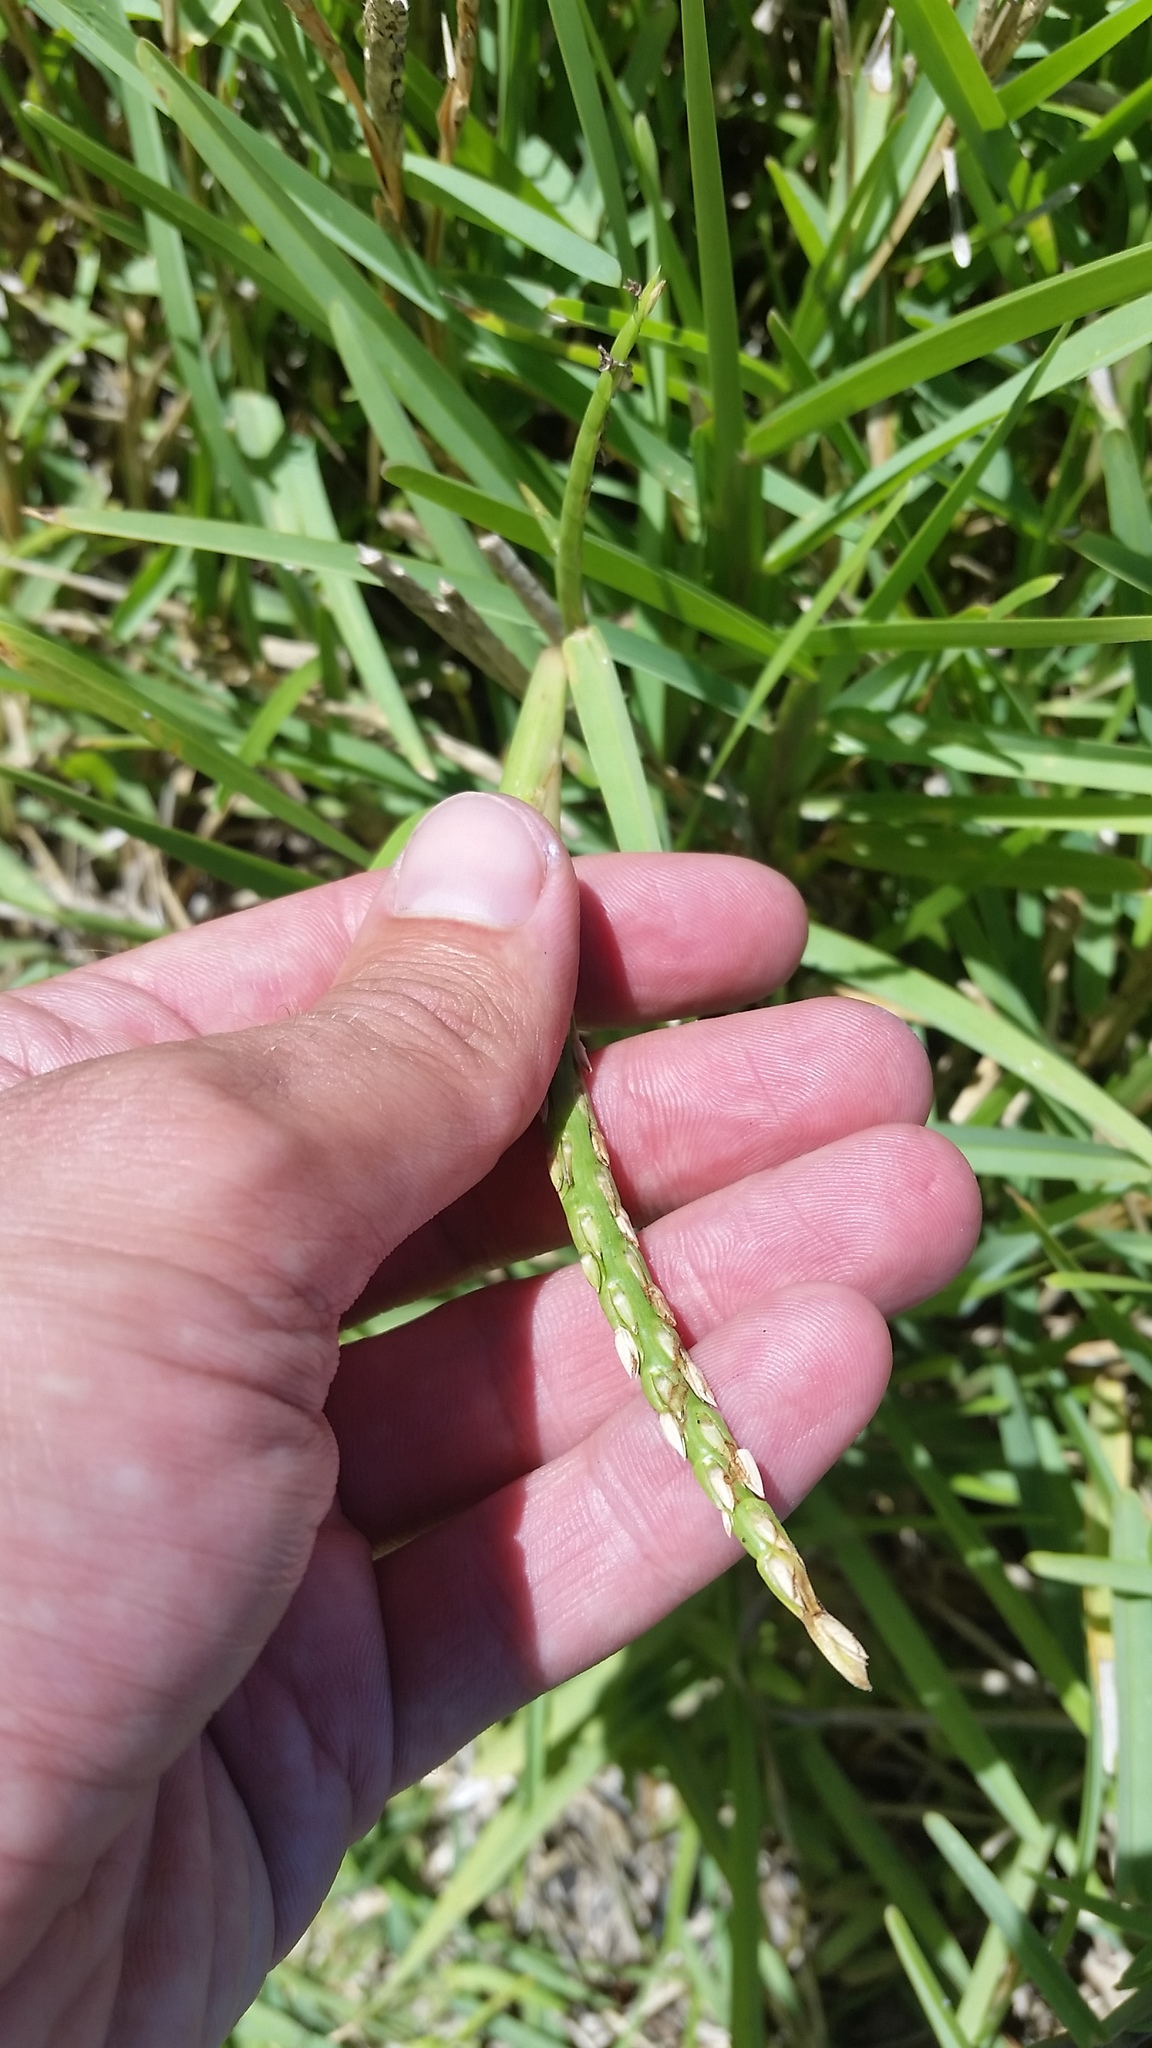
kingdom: Plantae
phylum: Tracheophyta
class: Liliopsida
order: Poales
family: Poaceae
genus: Stenotaphrum
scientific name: Stenotaphrum secundatum
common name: St. augustine grass
